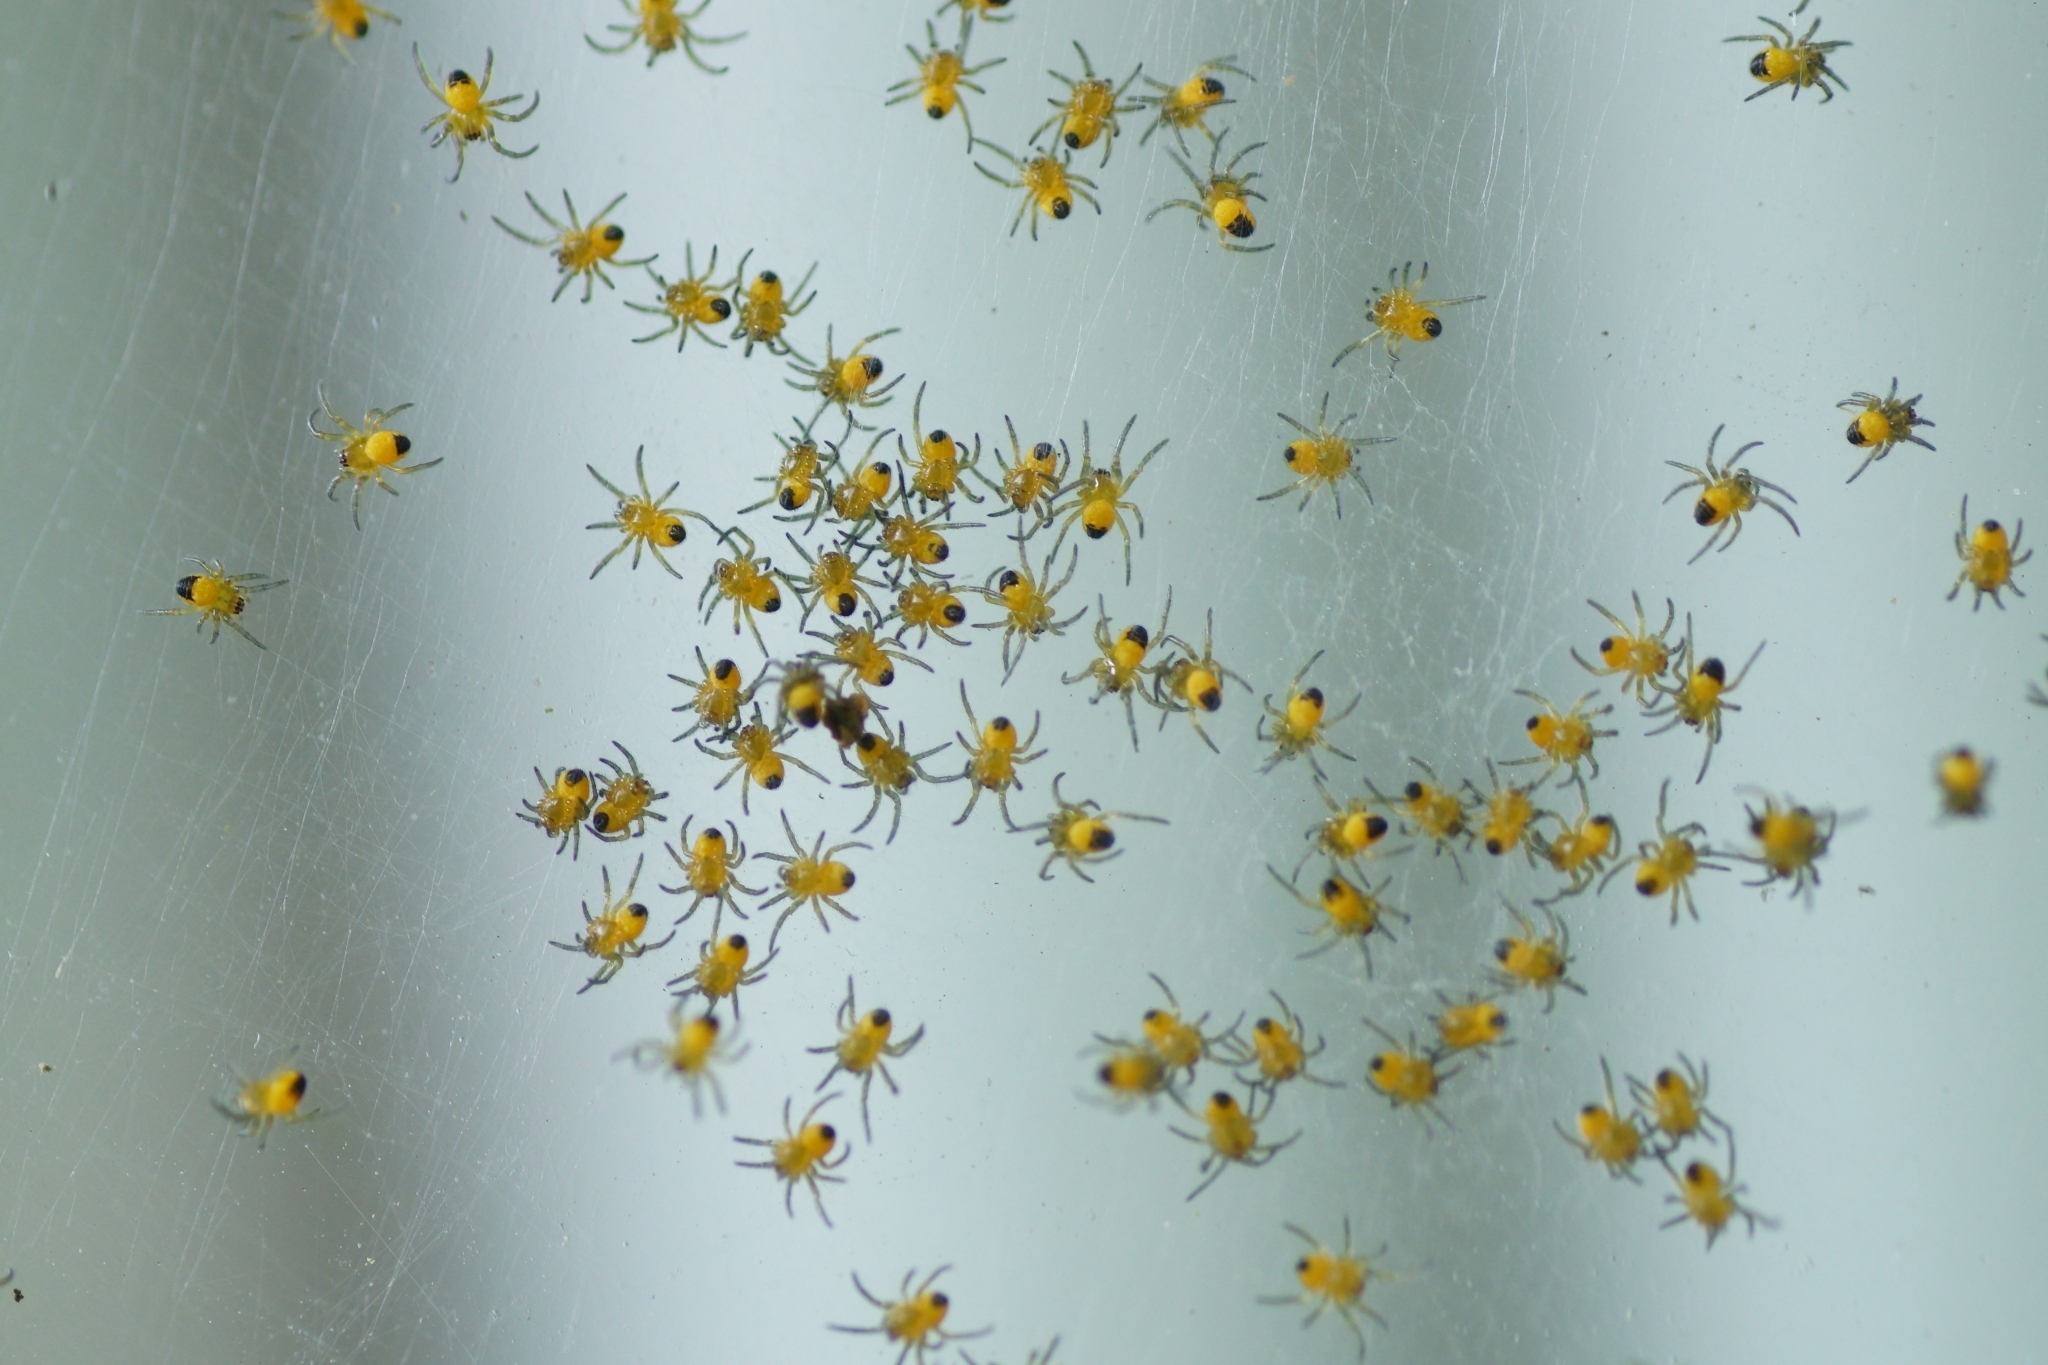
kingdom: Animalia
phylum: Arthropoda
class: Arachnida
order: Araneae
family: Araneidae
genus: Araneus
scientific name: Araneus diadematus
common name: Cross orbweaver
